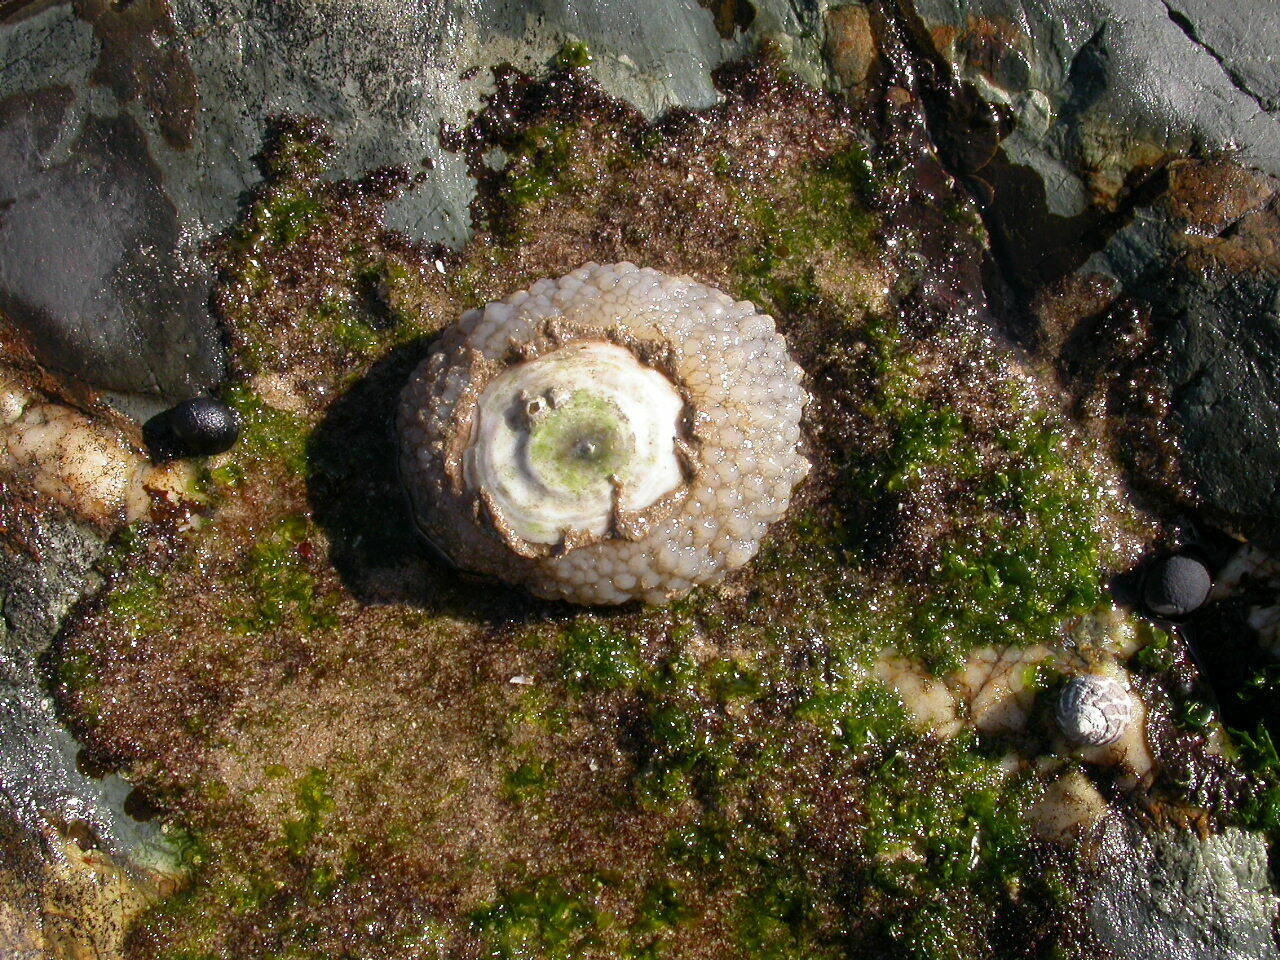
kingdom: Animalia
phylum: Mollusca
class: Gastropoda
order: Umbraculida
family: Umbraculidae
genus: Umbraculum
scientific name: Umbraculum umbraculum
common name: Atlantic umbrella slug
